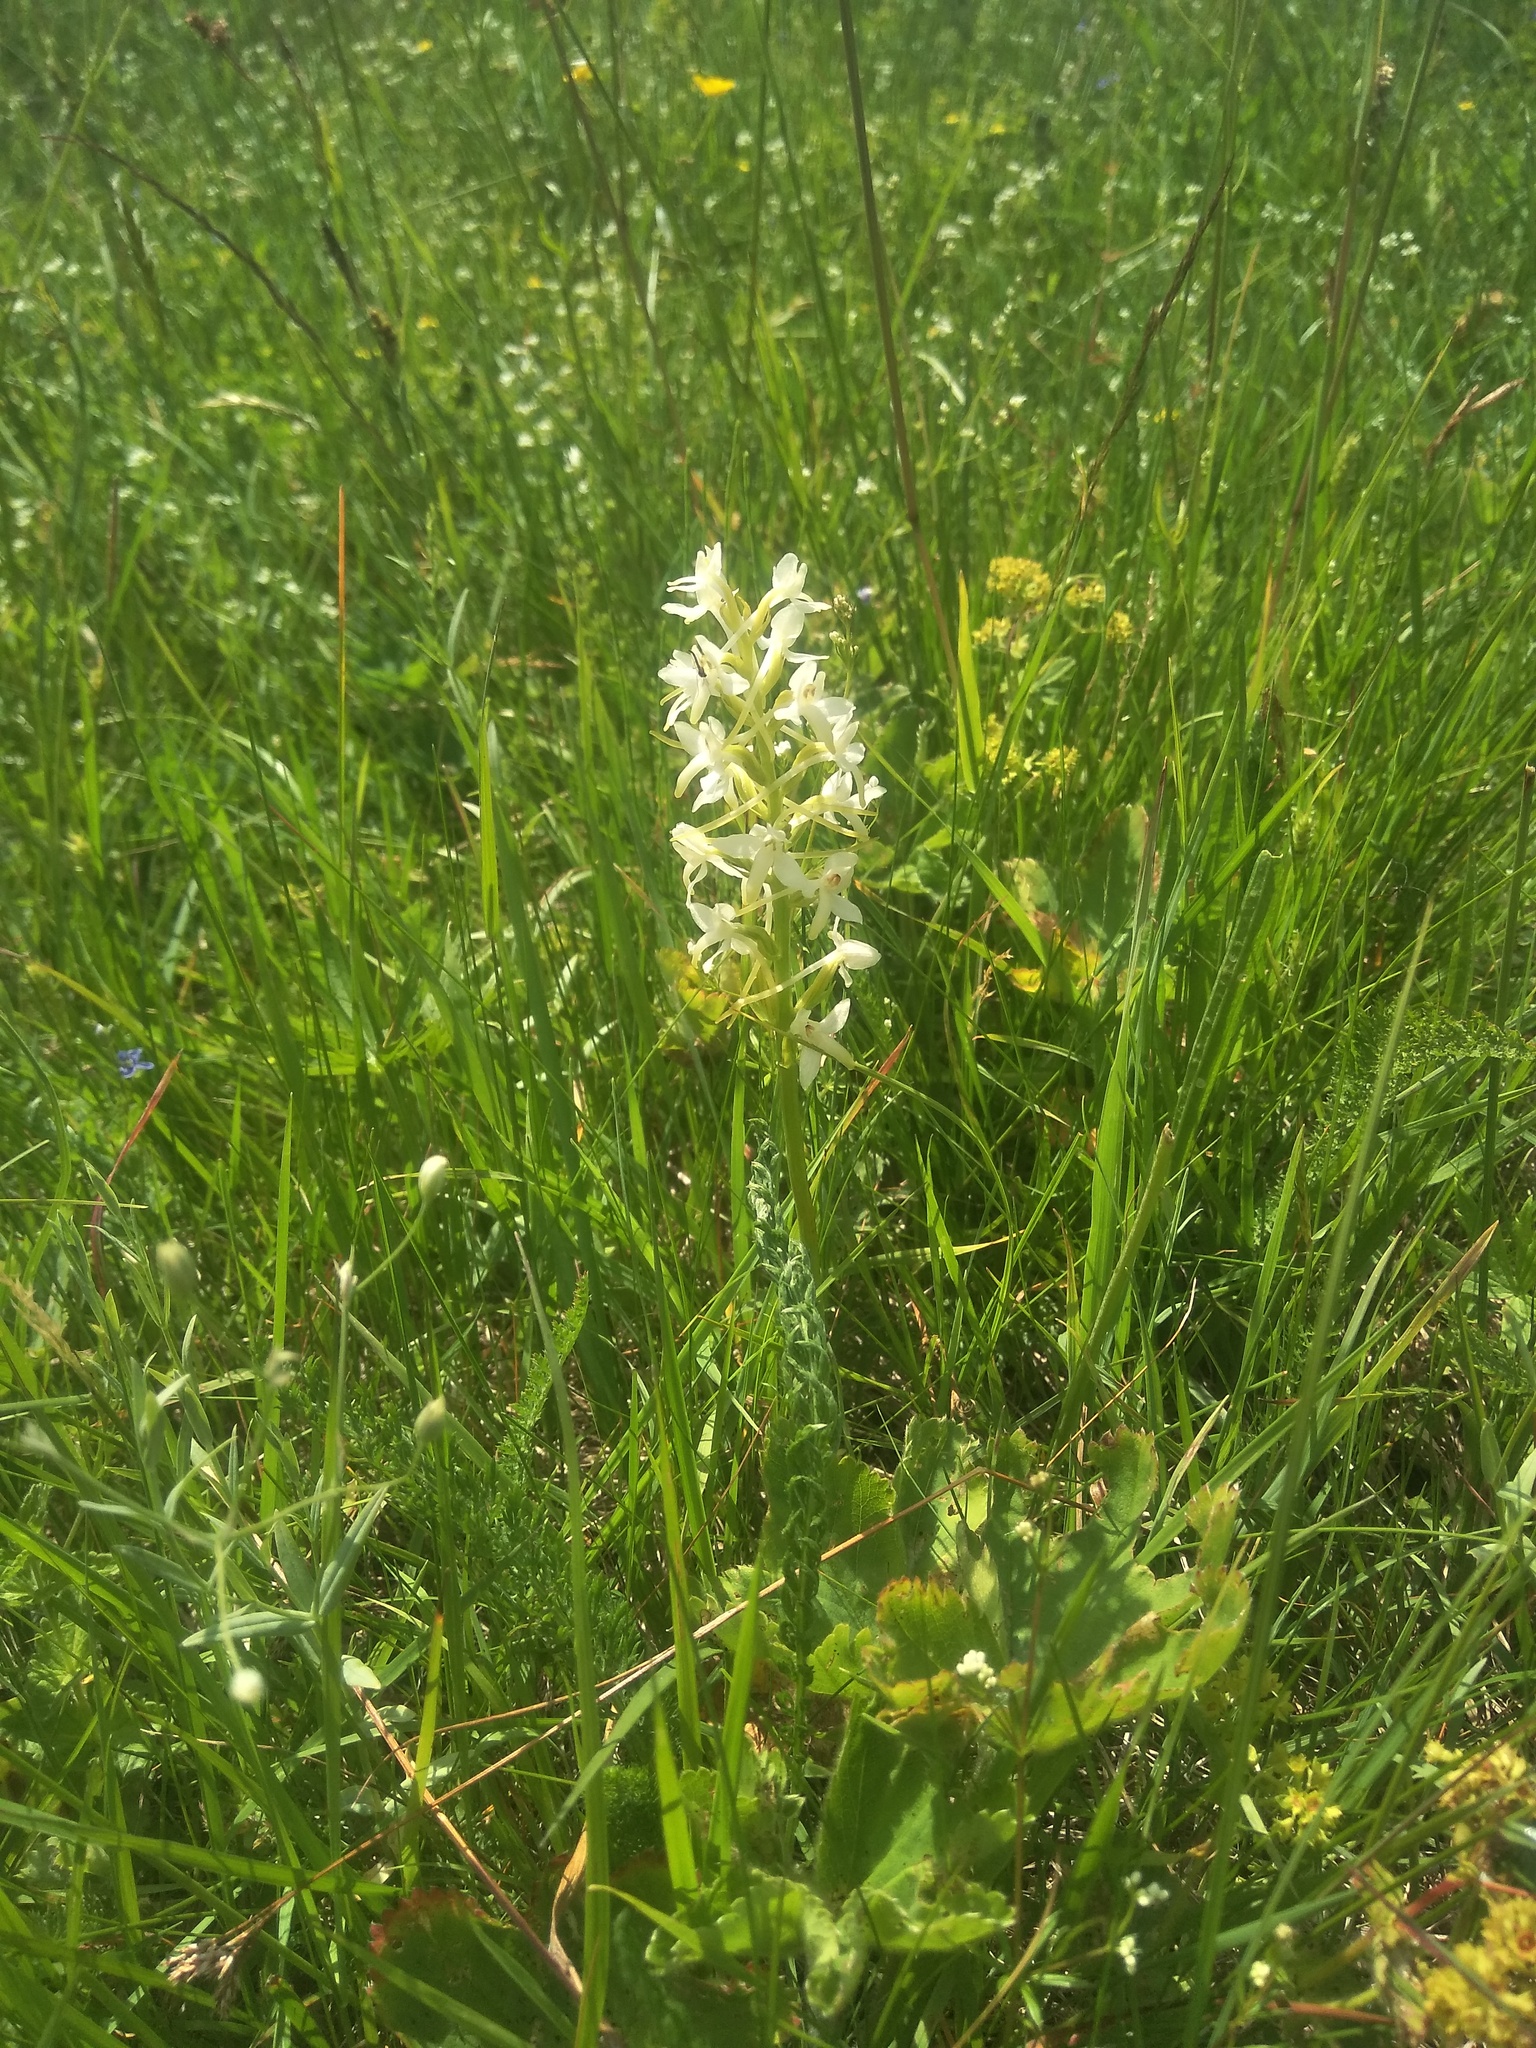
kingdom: Plantae
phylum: Tracheophyta
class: Liliopsida
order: Asparagales
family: Orchidaceae
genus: Platanthera
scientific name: Platanthera bifolia
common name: Lesser butterfly-orchid
